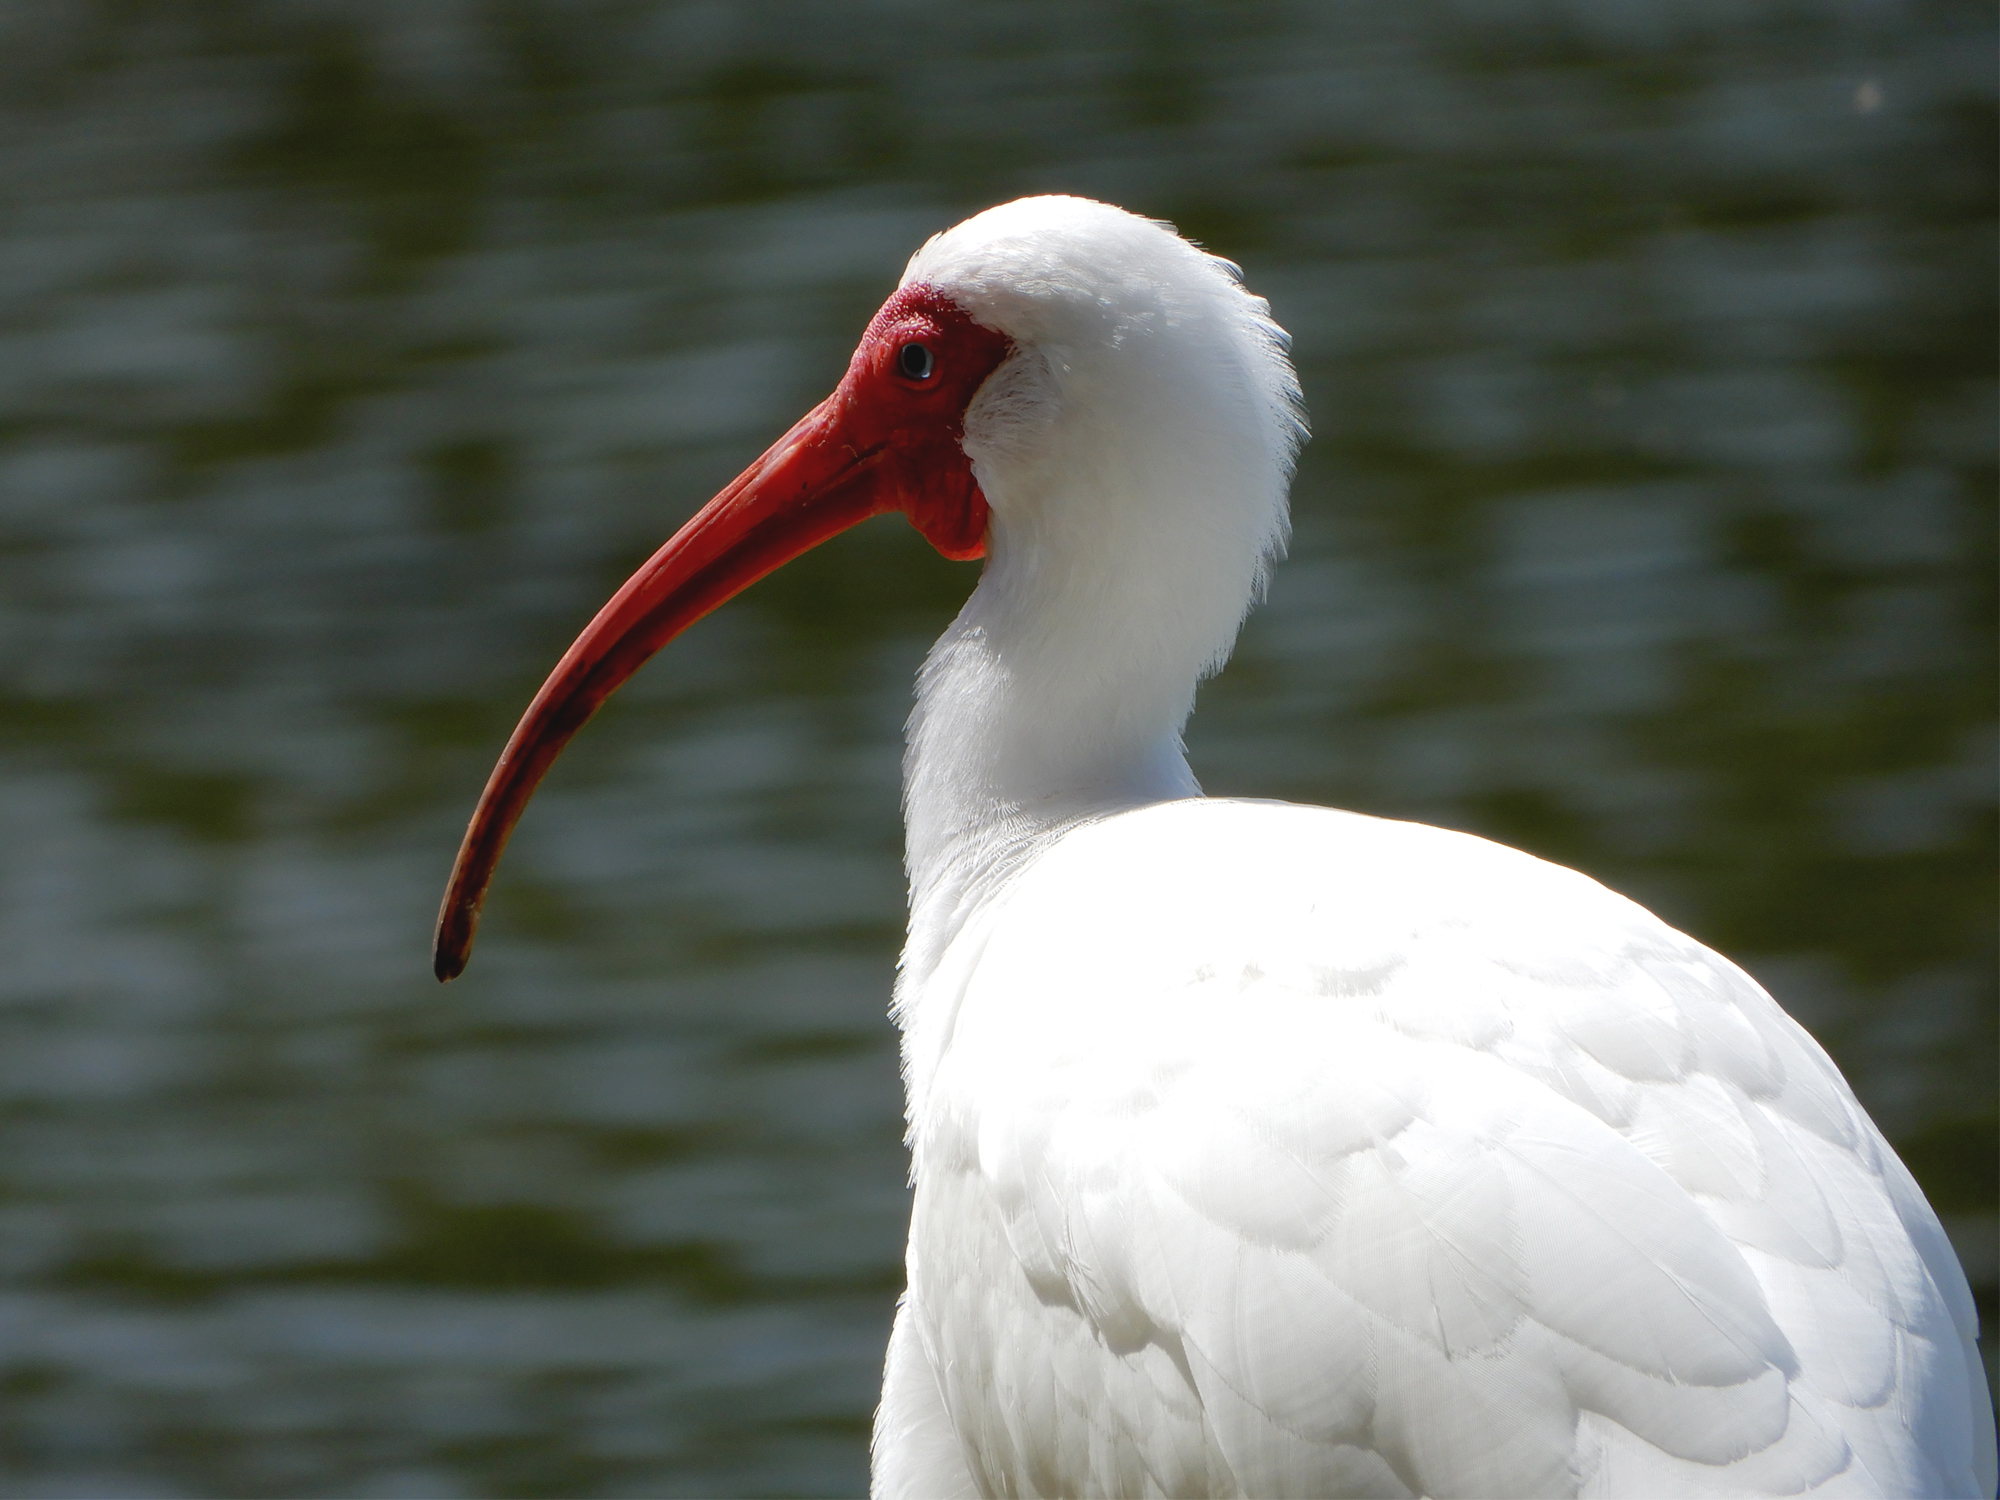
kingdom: Animalia
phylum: Chordata
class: Aves
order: Pelecaniformes
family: Threskiornithidae
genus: Eudocimus
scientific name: Eudocimus albus
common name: White ibis
